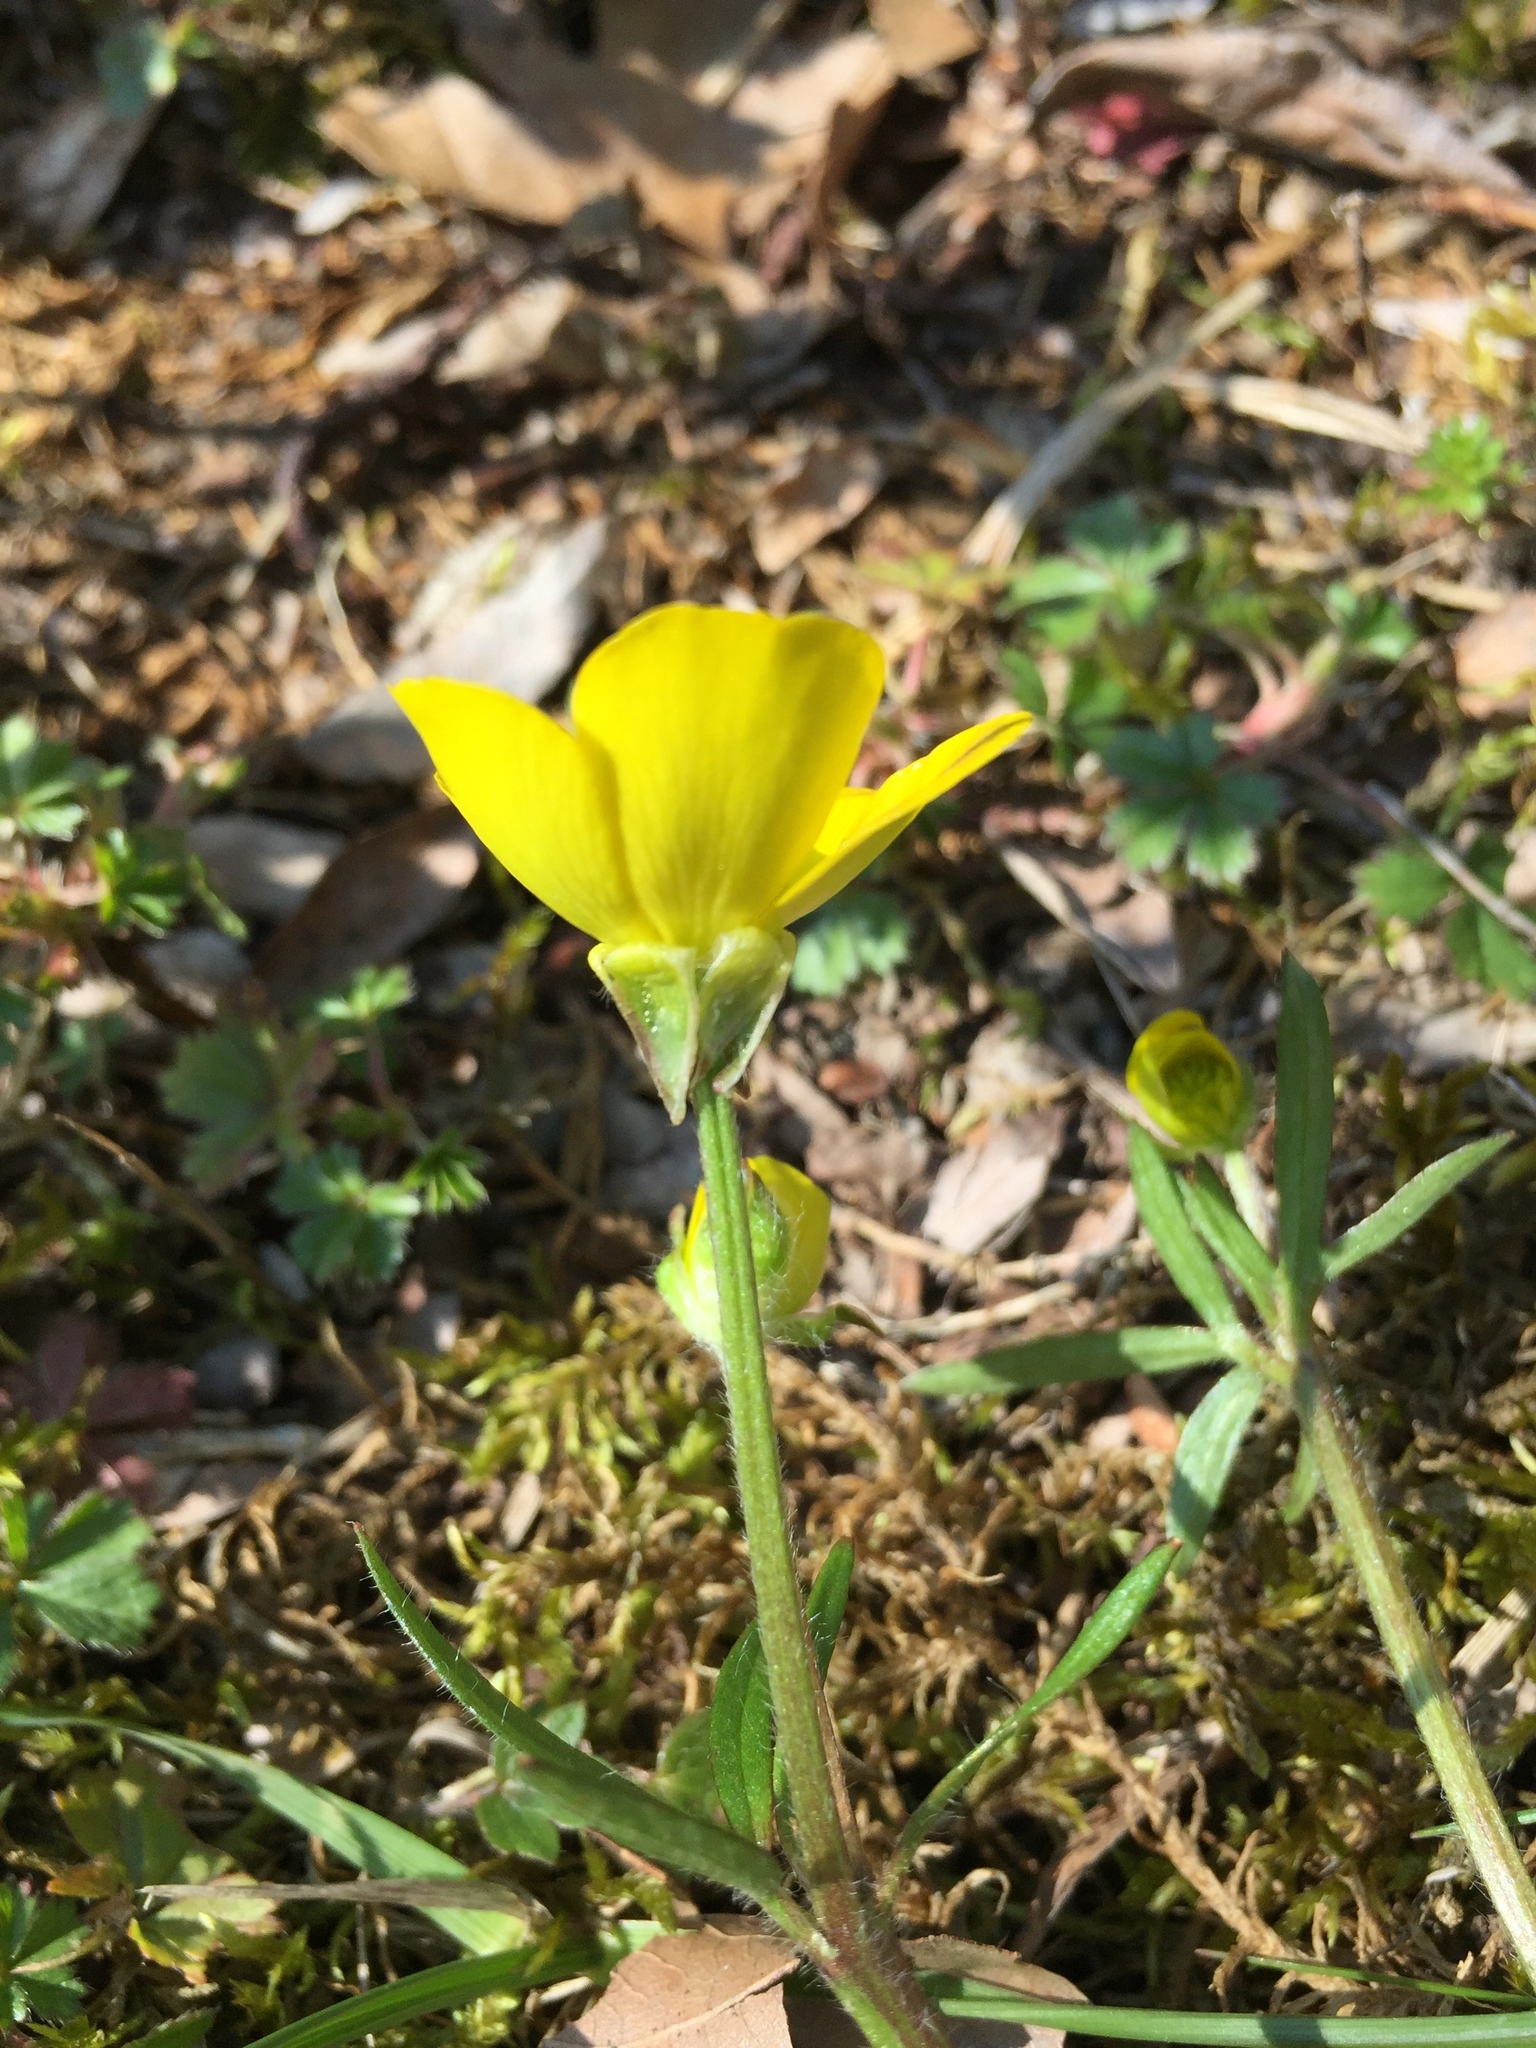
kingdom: Plantae
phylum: Tracheophyta
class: Magnoliopsida
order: Ranunculales
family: Ranunculaceae
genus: Ranunculus
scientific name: Ranunculus bulbosus
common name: Bulbous buttercup
